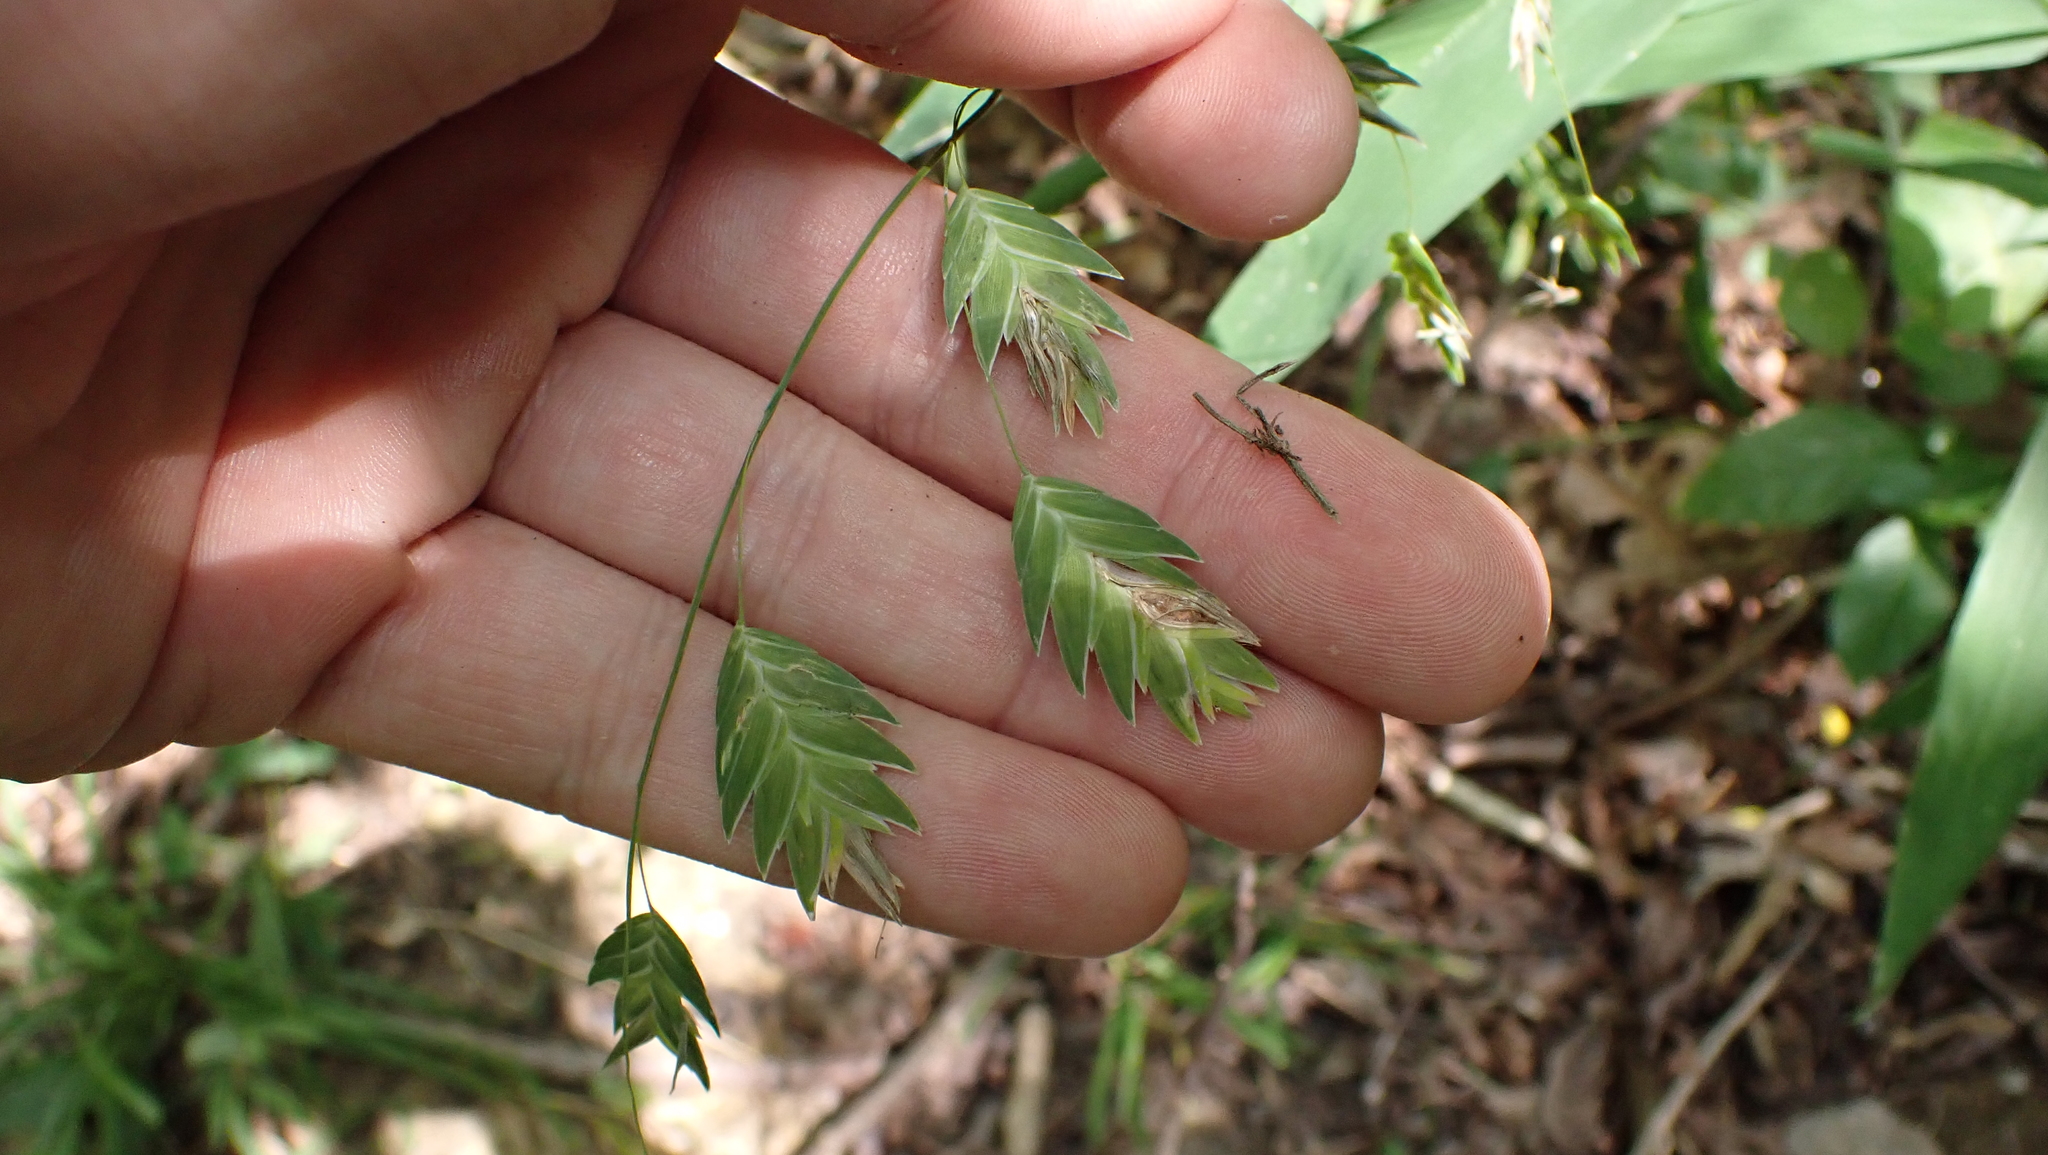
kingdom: Plantae
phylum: Tracheophyta
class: Liliopsida
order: Poales
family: Poaceae
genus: Chasmanthium
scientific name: Chasmanthium latifolium
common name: Broad-leaved chasmanthium
